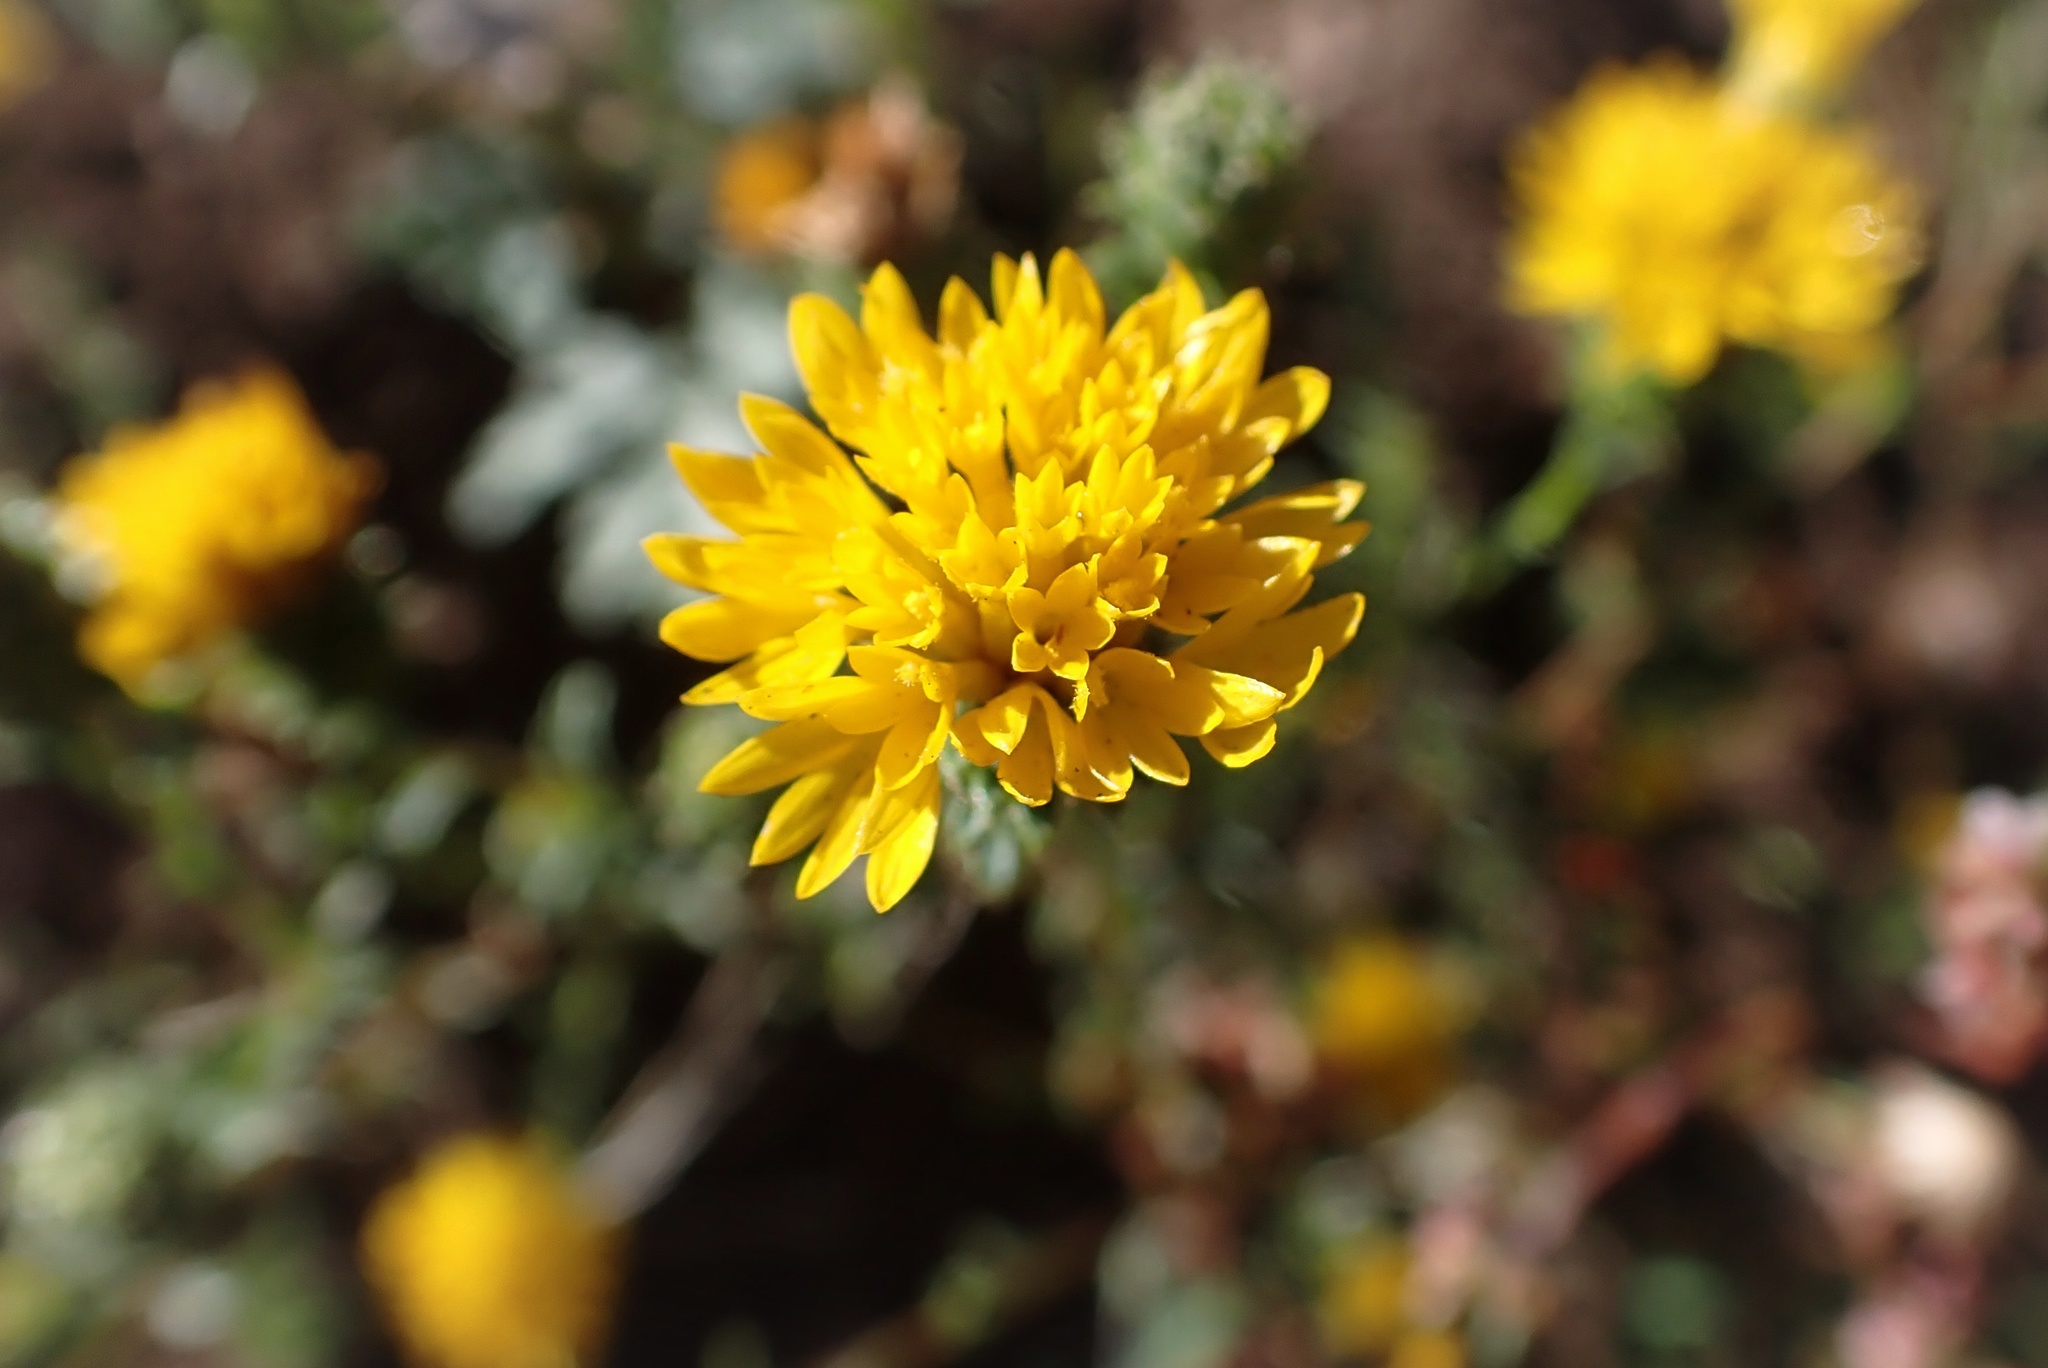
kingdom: Plantae
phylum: Tracheophyta
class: Magnoliopsida
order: Asterales
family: Asteraceae
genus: Lessingia
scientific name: Lessingia glandulifera
